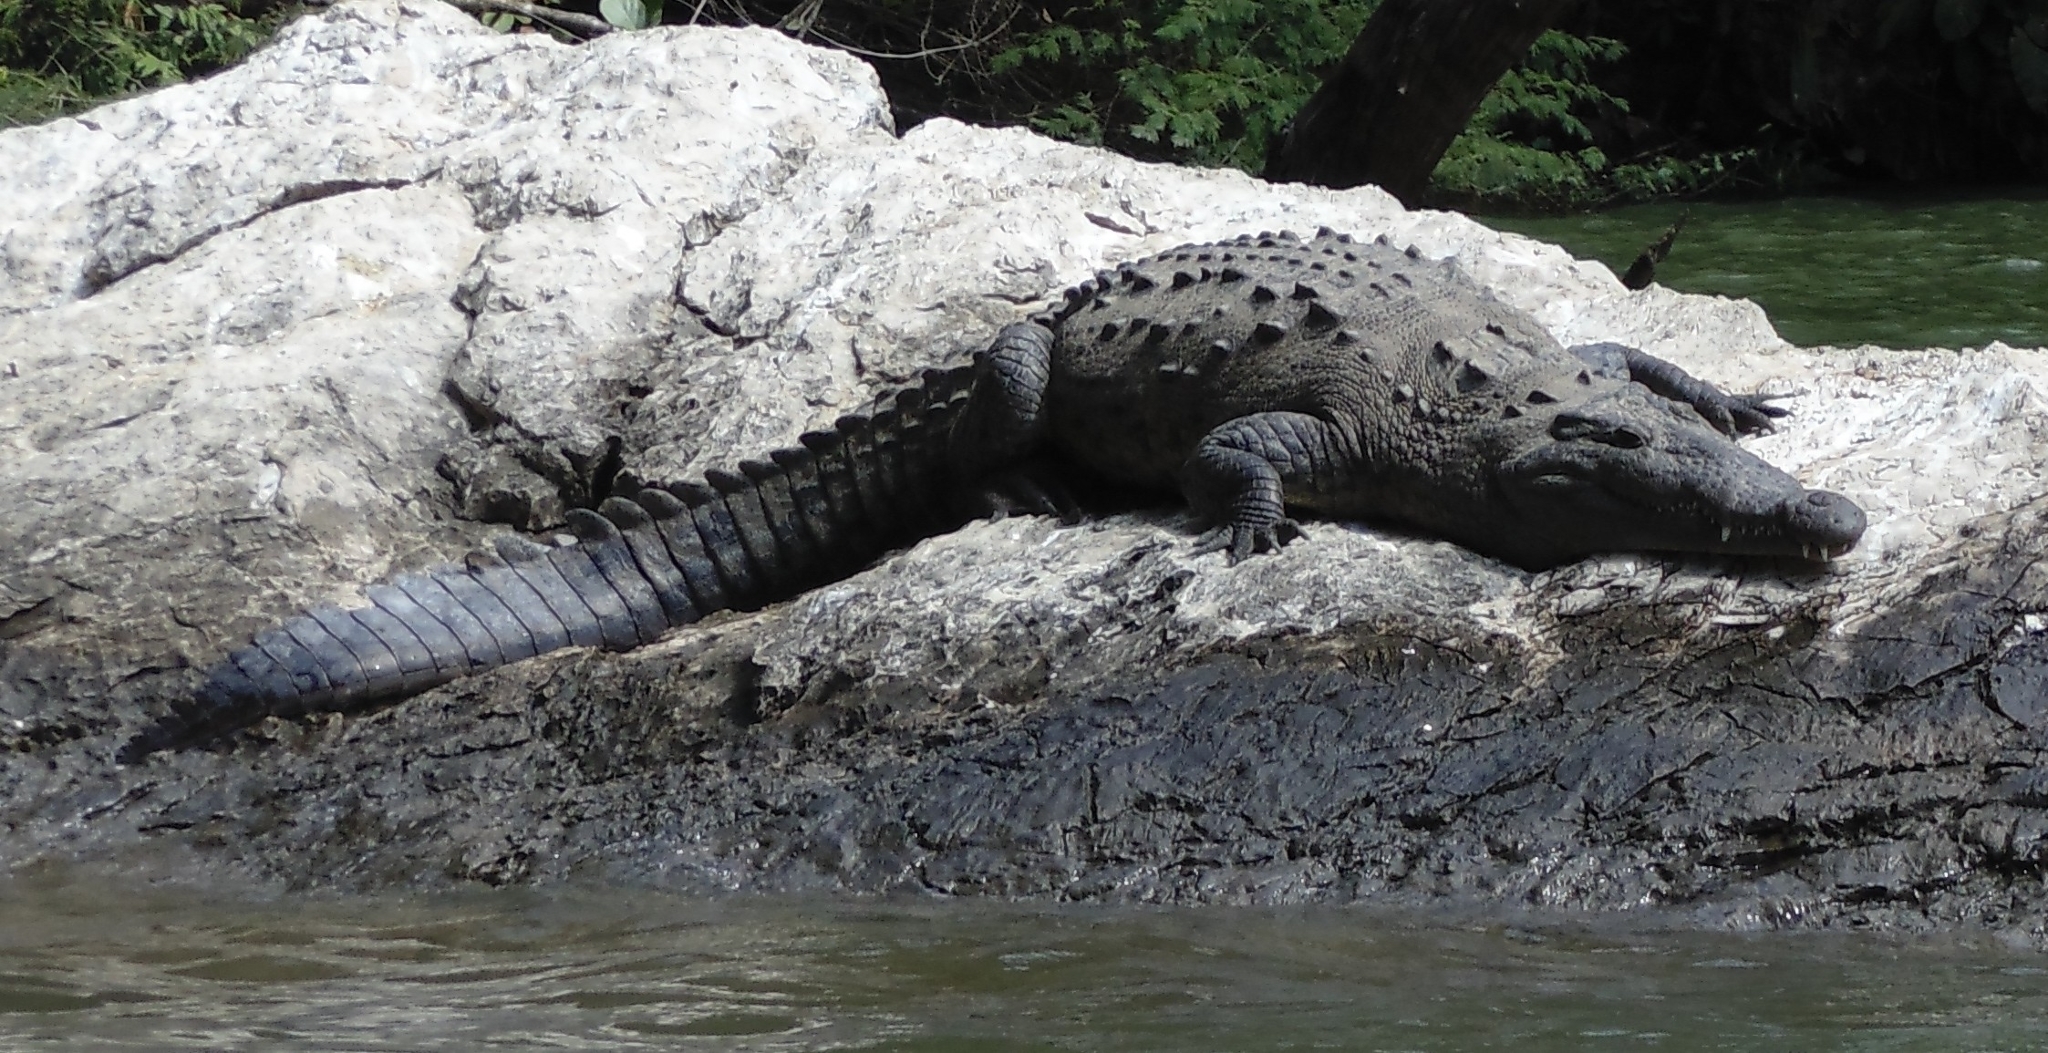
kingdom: Animalia
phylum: Chordata
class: Crocodylia
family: Crocodylidae
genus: Crocodylus
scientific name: Crocodylus acutus
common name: American crocodile
